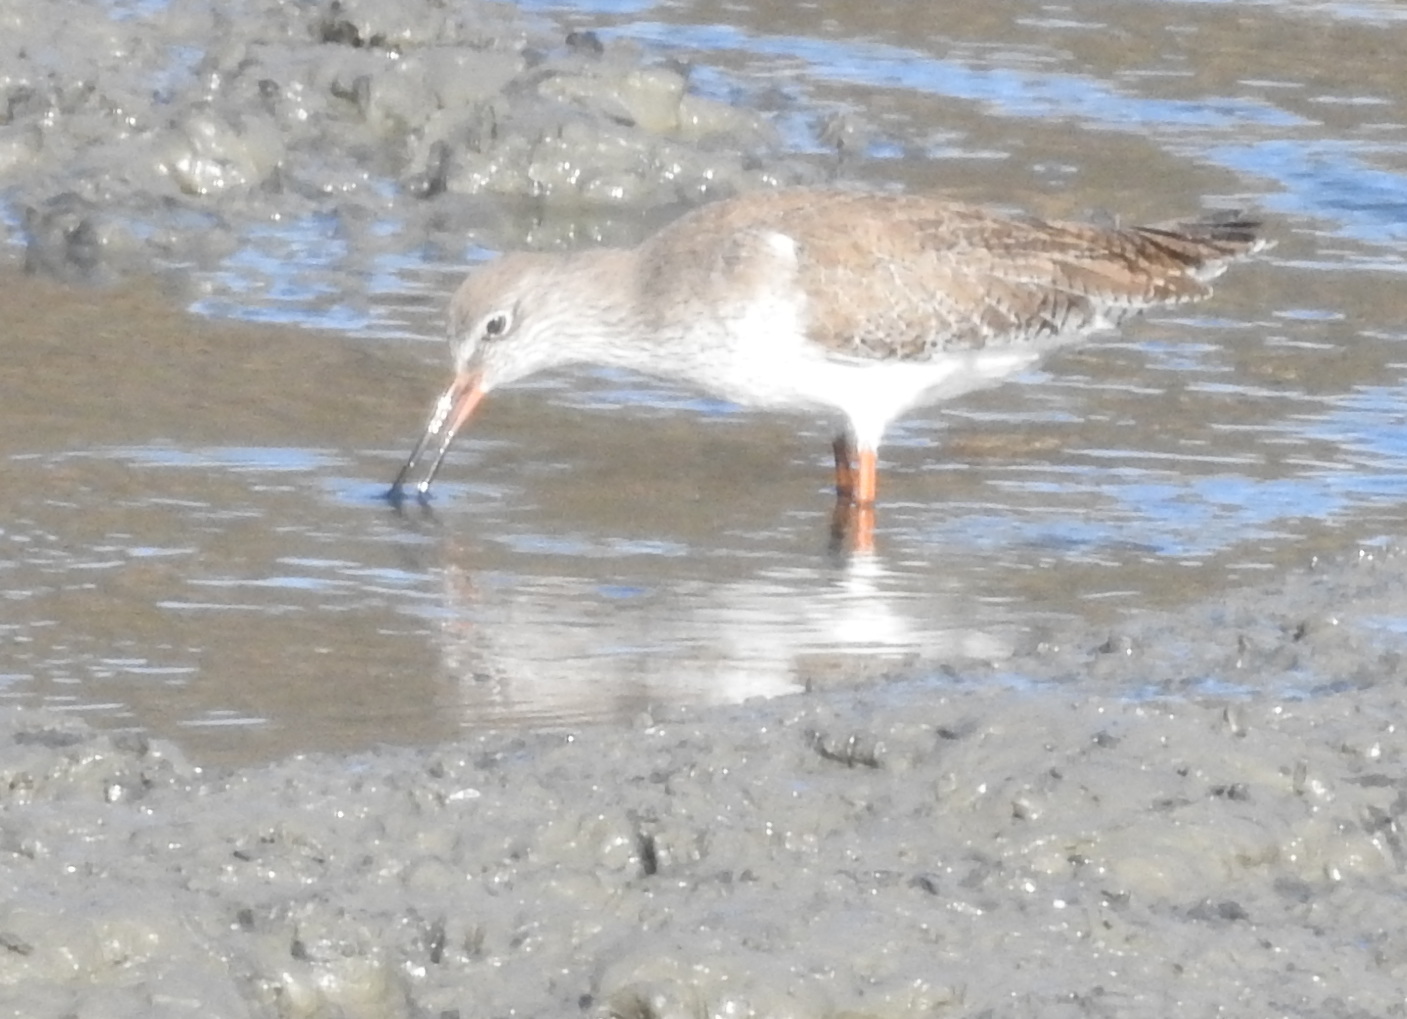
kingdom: Animalia
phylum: Chordata
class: Aves
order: Charadriiformes
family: Scolopacidae
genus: Tringa
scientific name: Tringa totanus
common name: Common redshank
